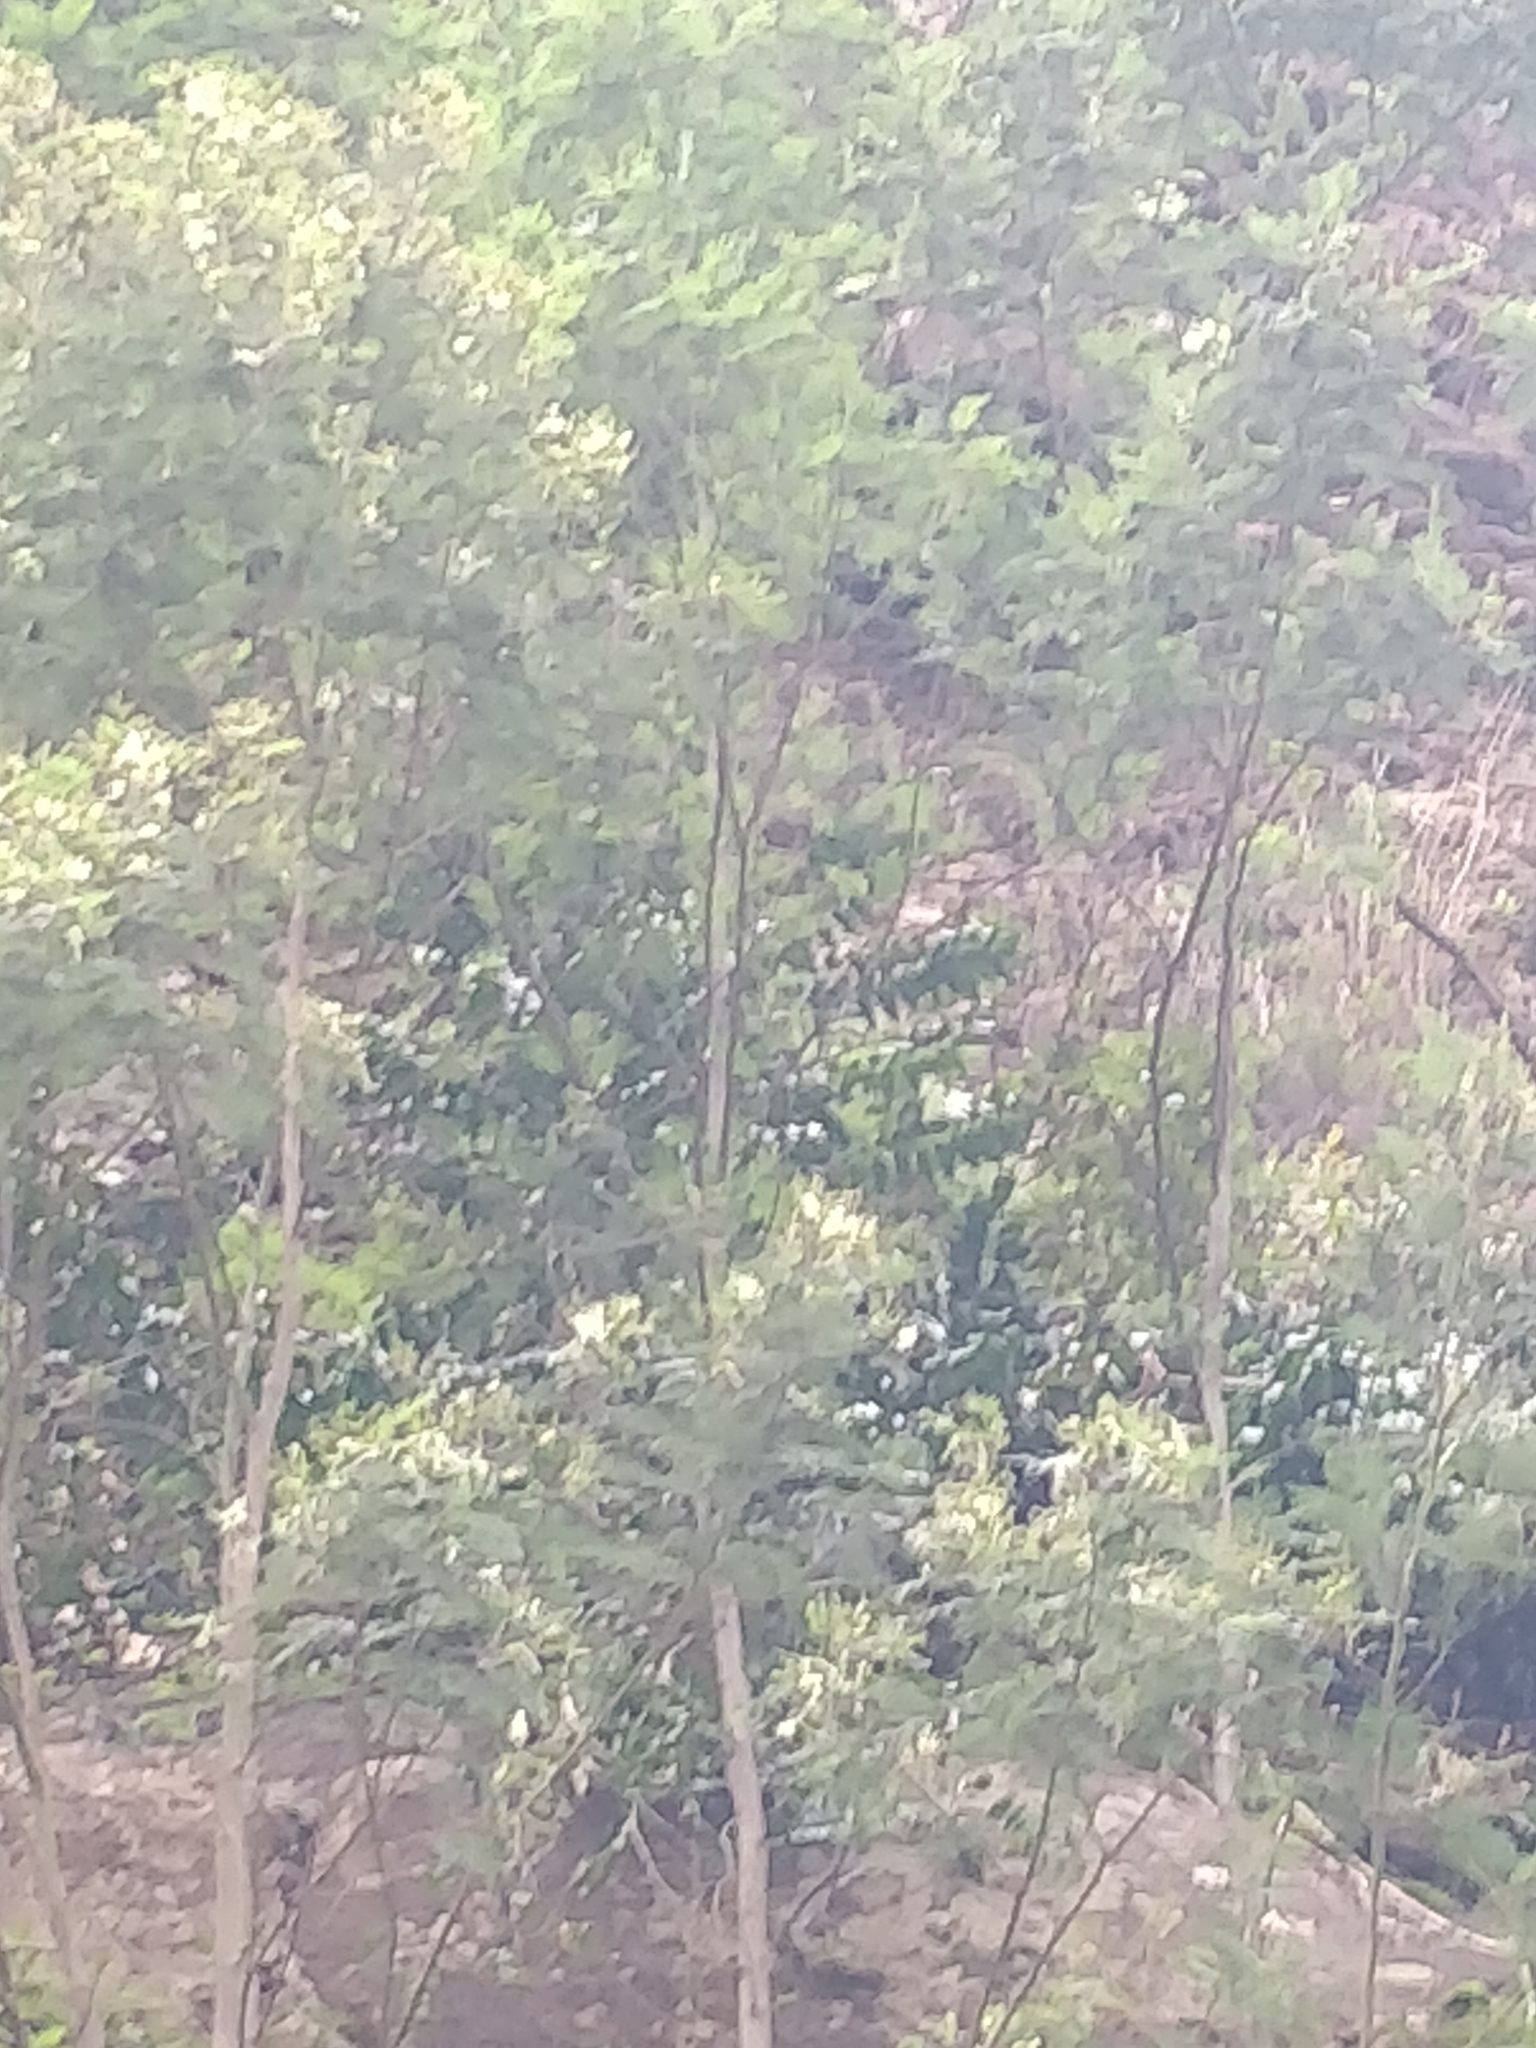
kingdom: Plantae
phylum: Tracheophyta
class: Liliopsida
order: Asparagales
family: Asparagaceae
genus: Semele
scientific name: Semele androgyna
